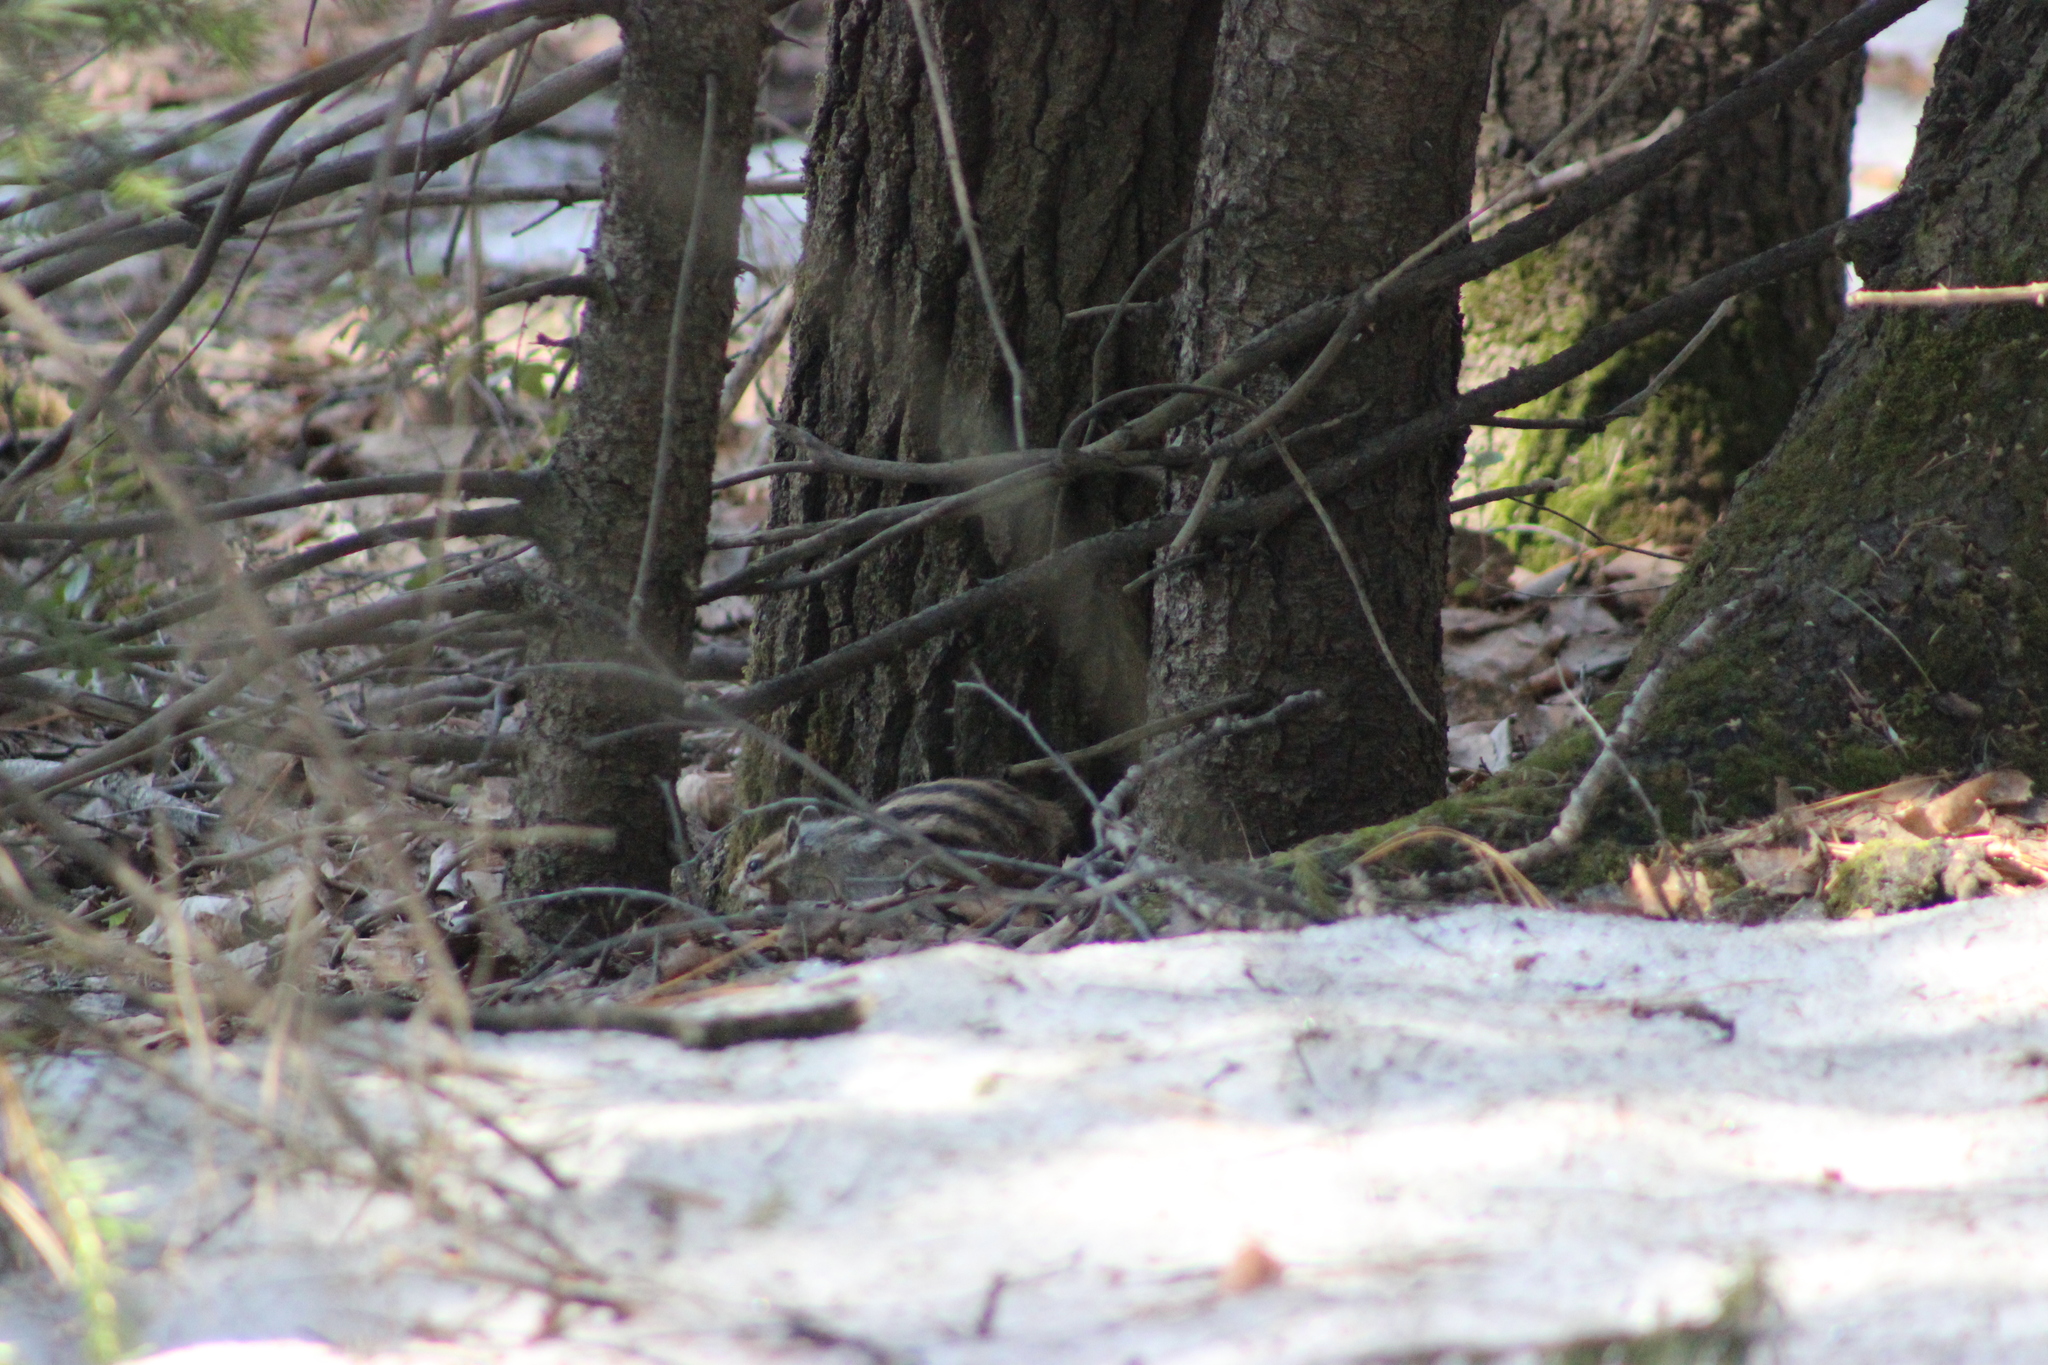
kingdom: Animalia
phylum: Chordata
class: Mammalia
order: Rodentia
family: Sciuridae
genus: Tamias
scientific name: Tamias sibiricus
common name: Siberian chipmunk
